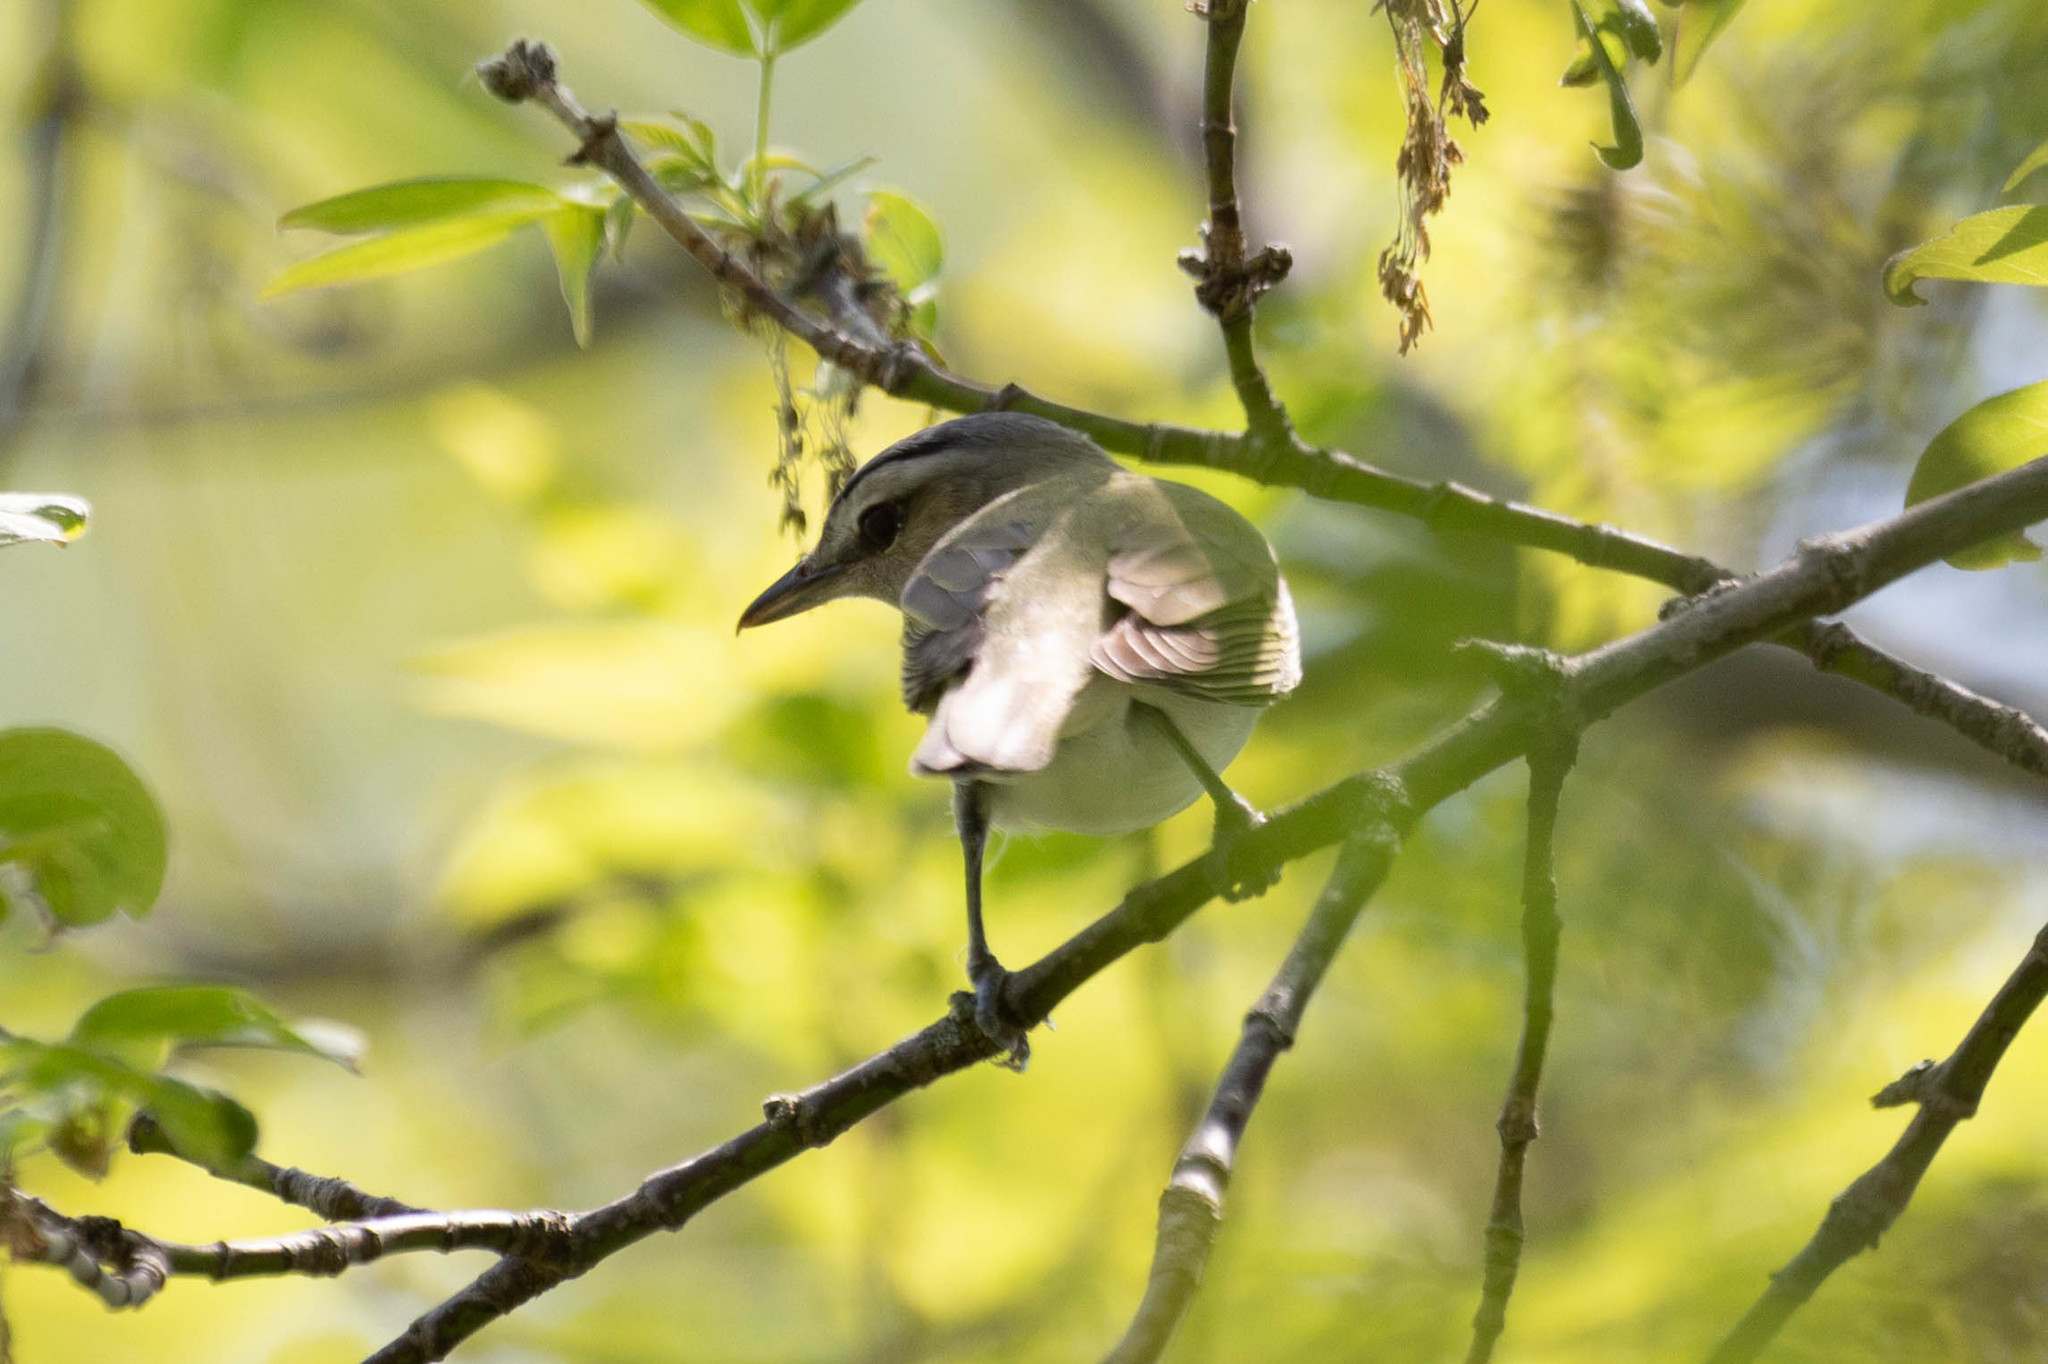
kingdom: Animalia
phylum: Chordata
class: Aves
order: Passeriformes
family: Vireonidae
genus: Vireo
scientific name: Vireo olivaceus
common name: Red-eyed vireo
